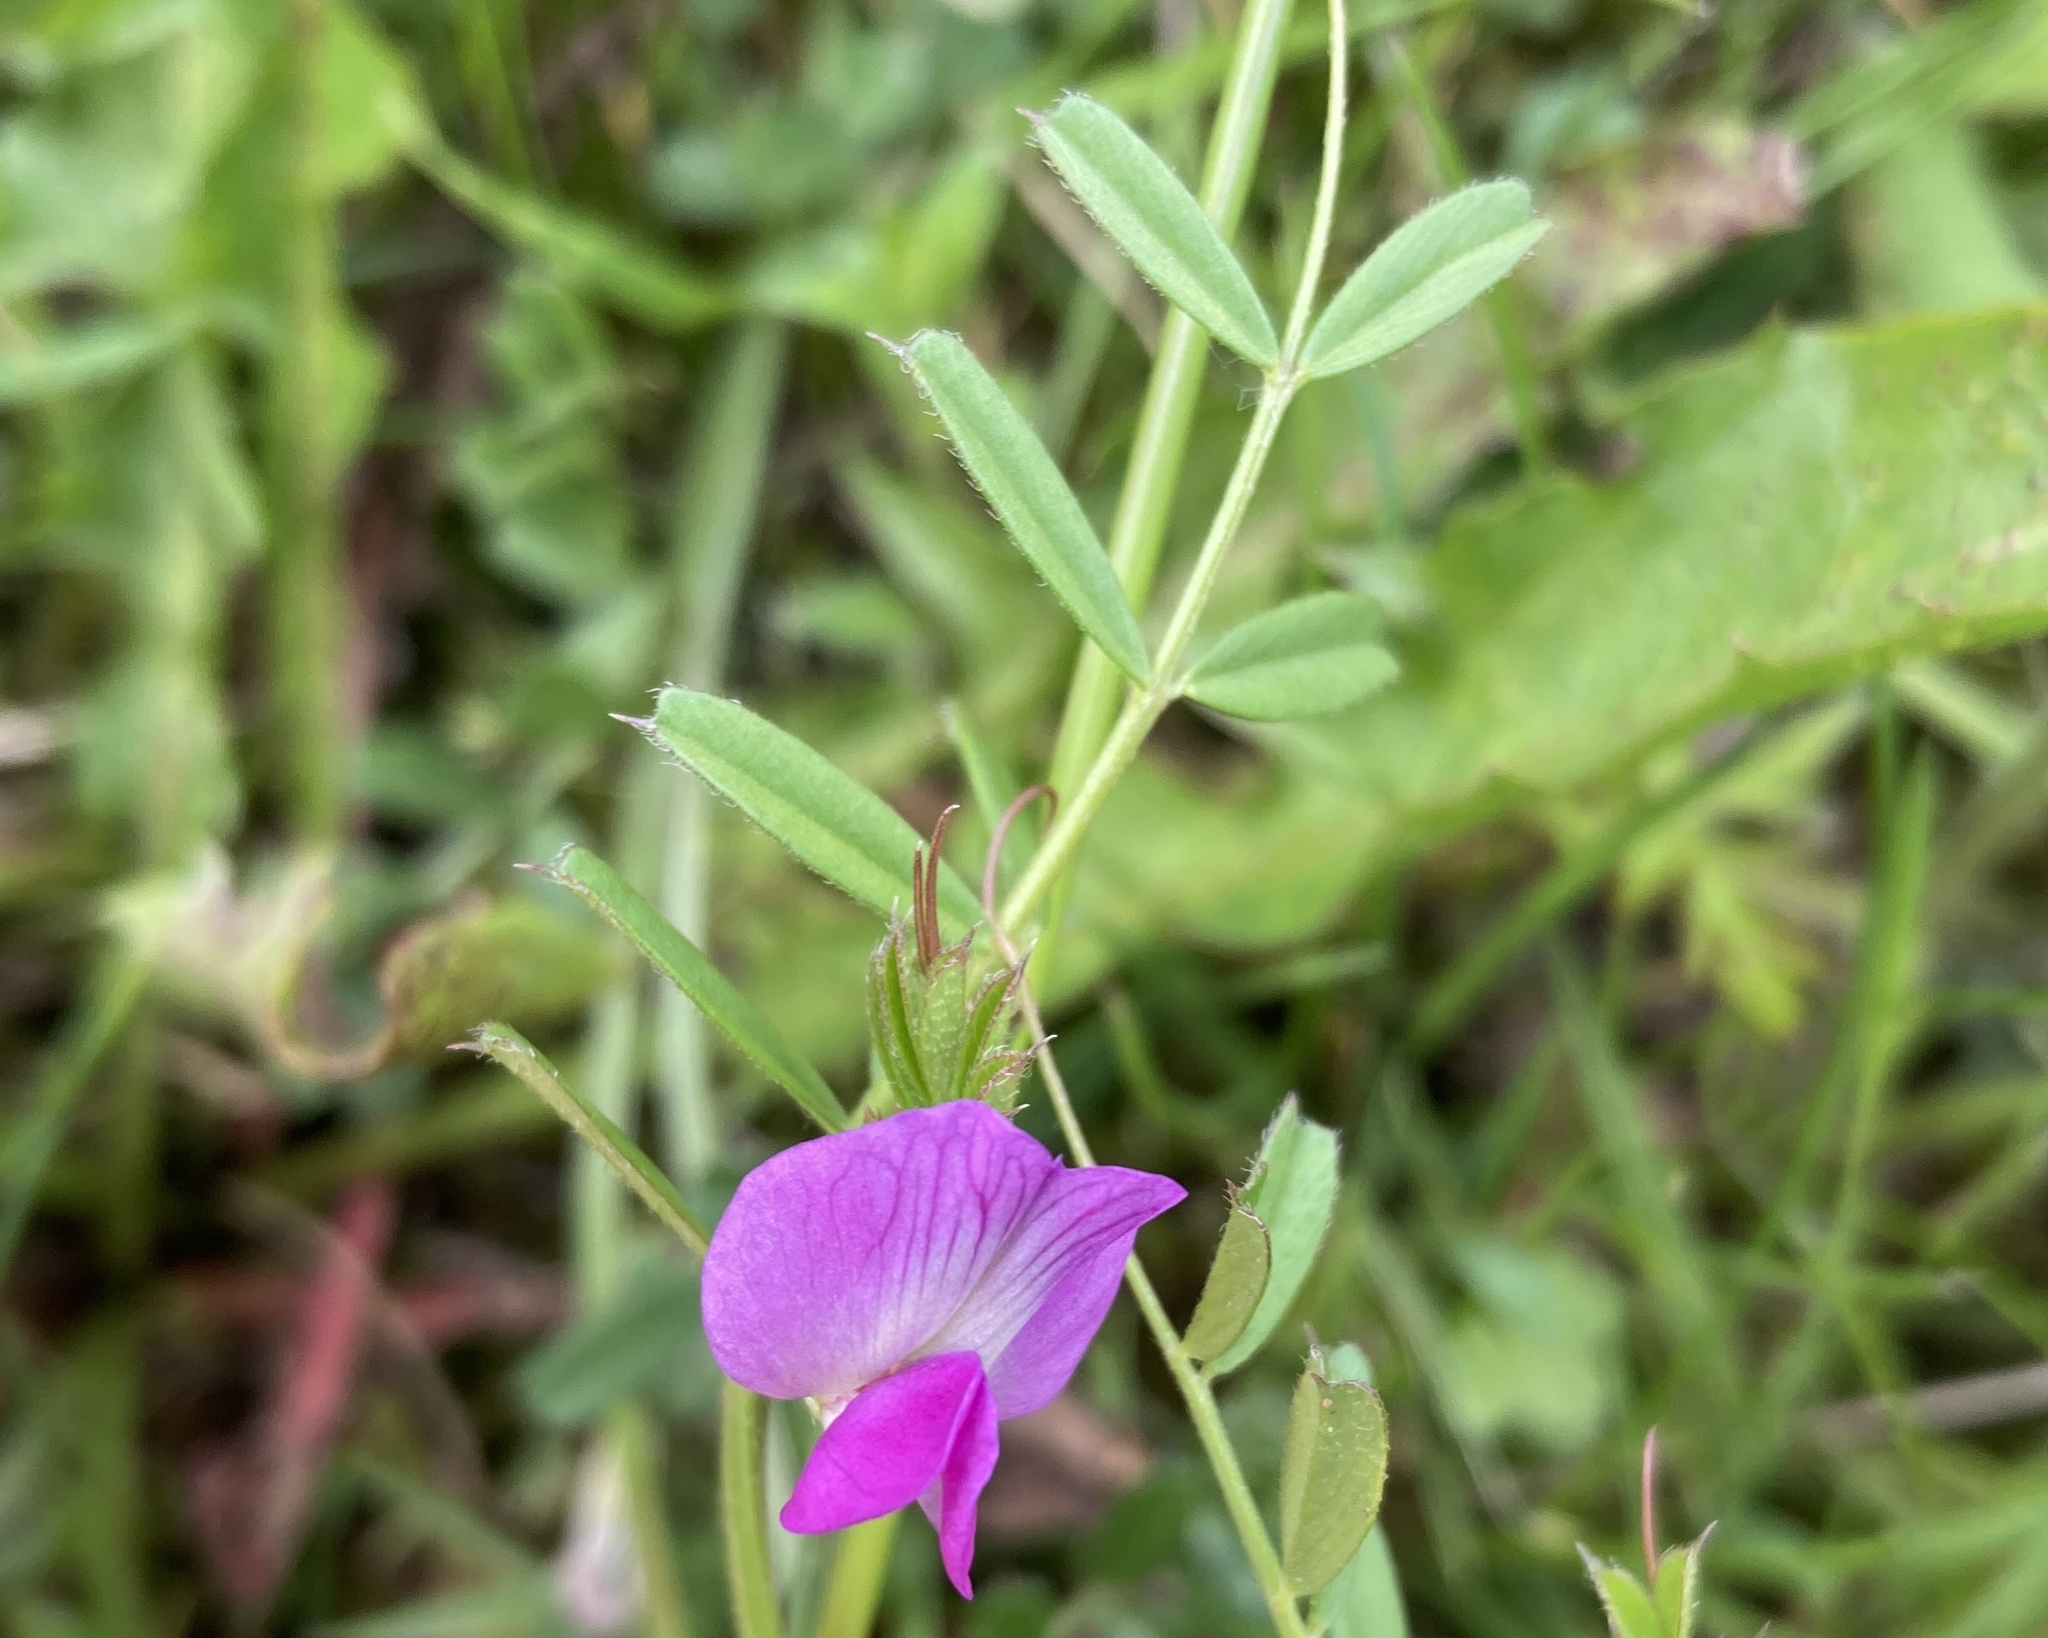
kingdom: Plantae
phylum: Tracheophyta
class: Magnoliopsida
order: Fabales
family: Fabaceae
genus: Vicia
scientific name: Vicia sativa
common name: Garden vetch
